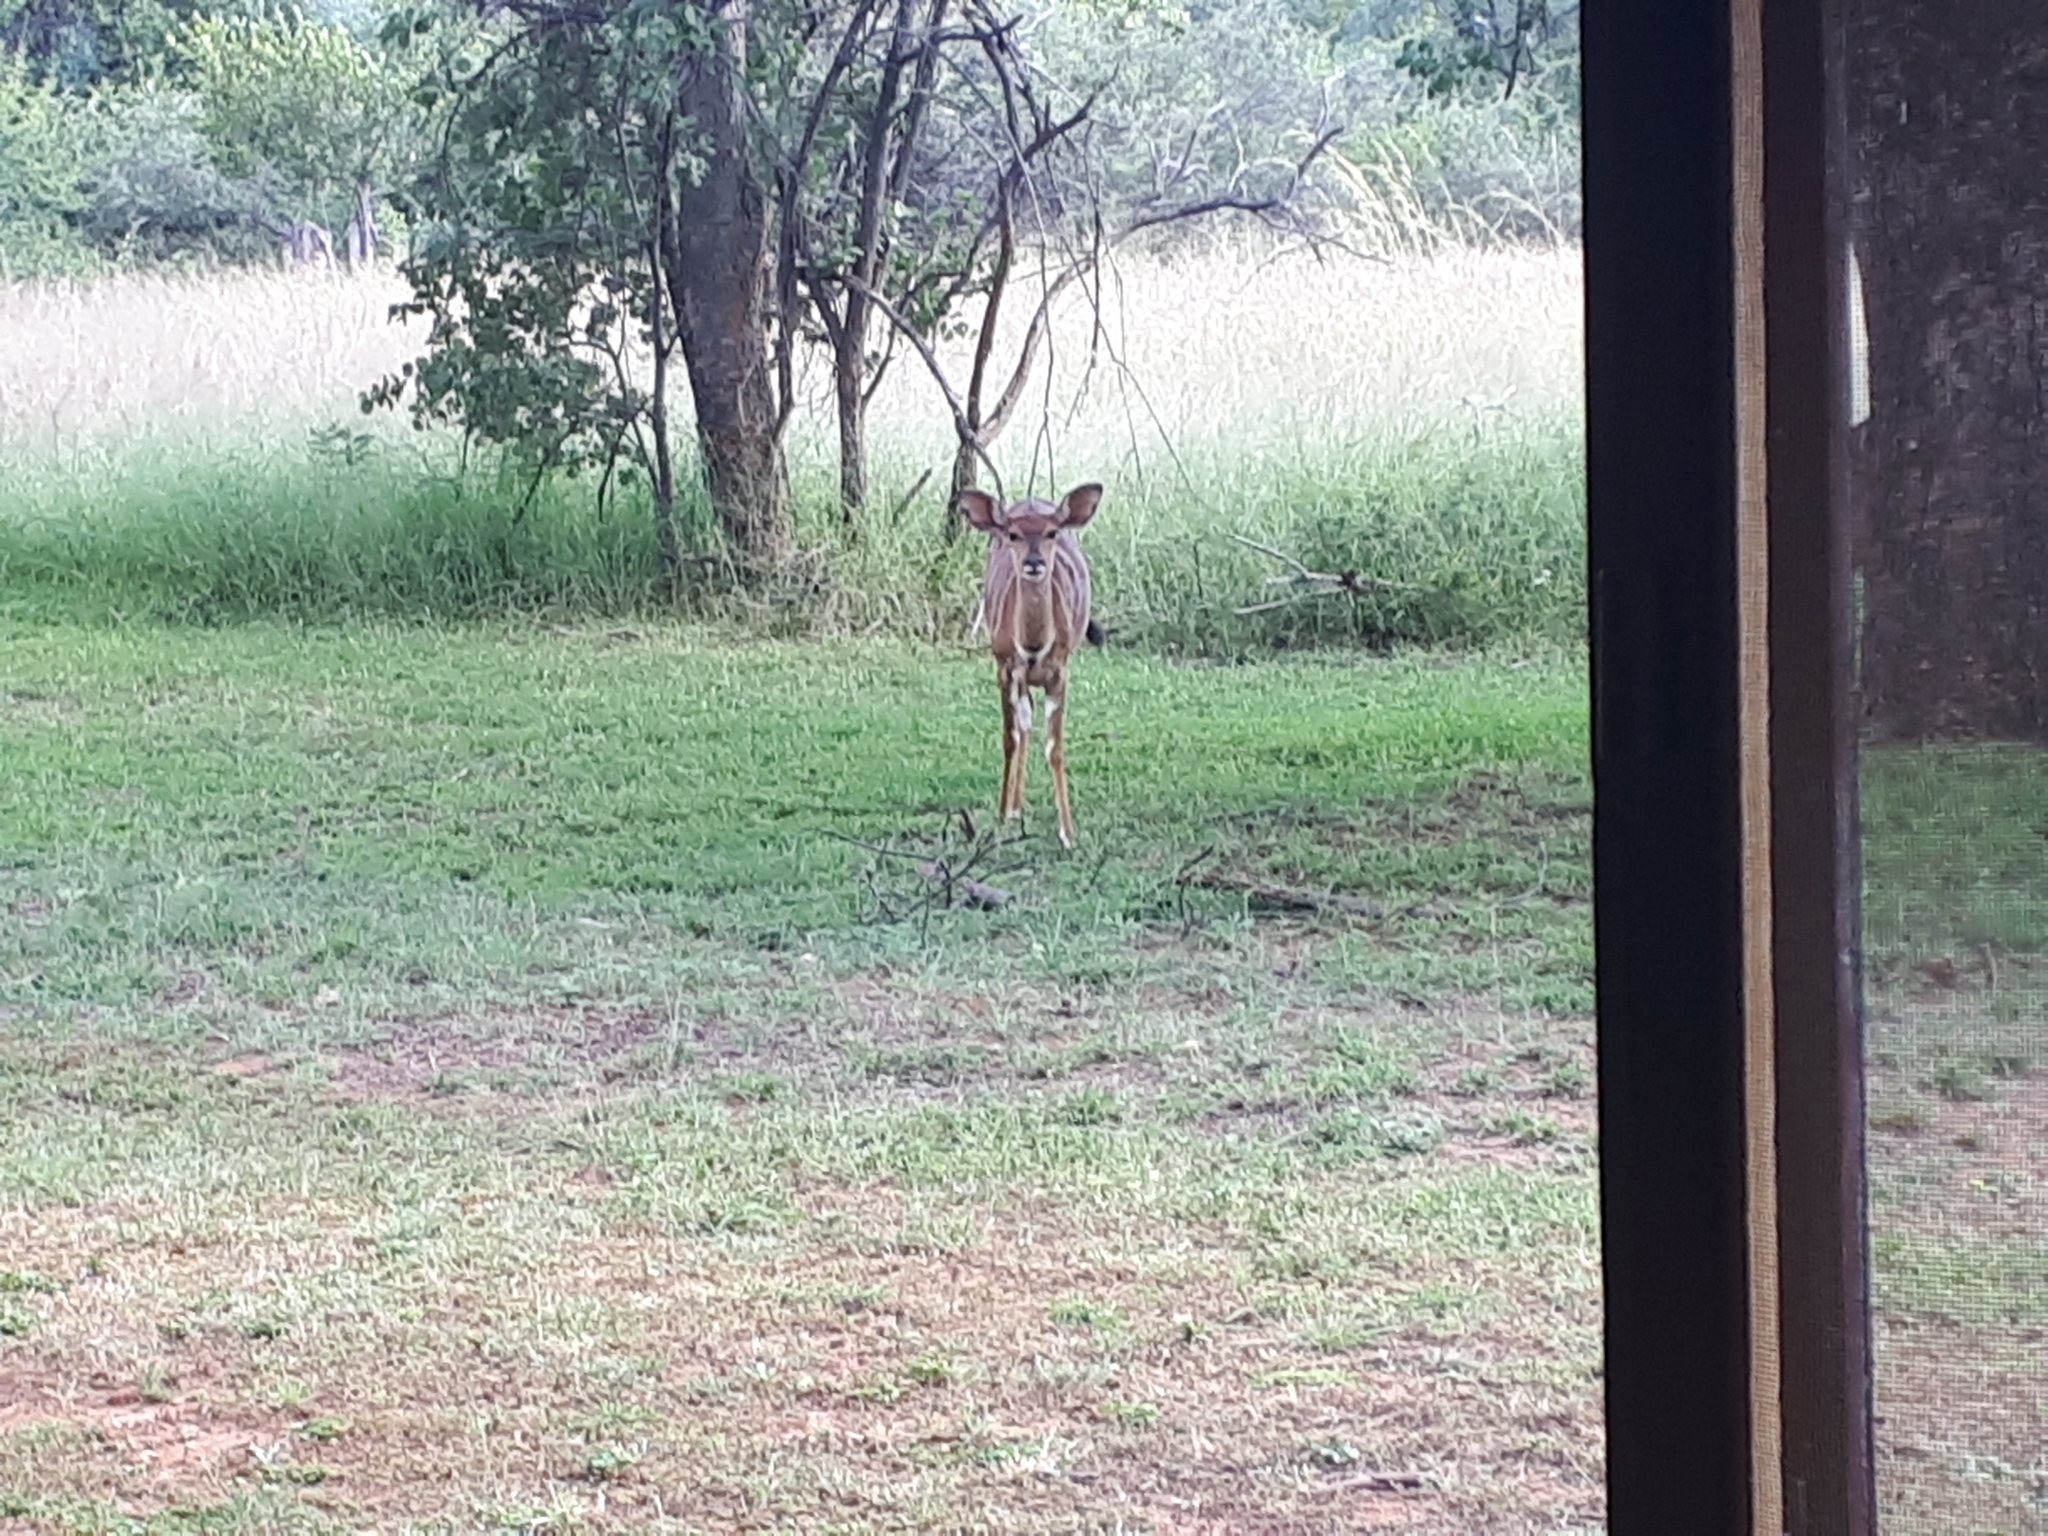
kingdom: Animalia
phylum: Chordata
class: Mammalia
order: Artiodactyla
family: Bovidae
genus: Tragelaphus
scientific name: Tragelaphus angasii
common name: Nyala
